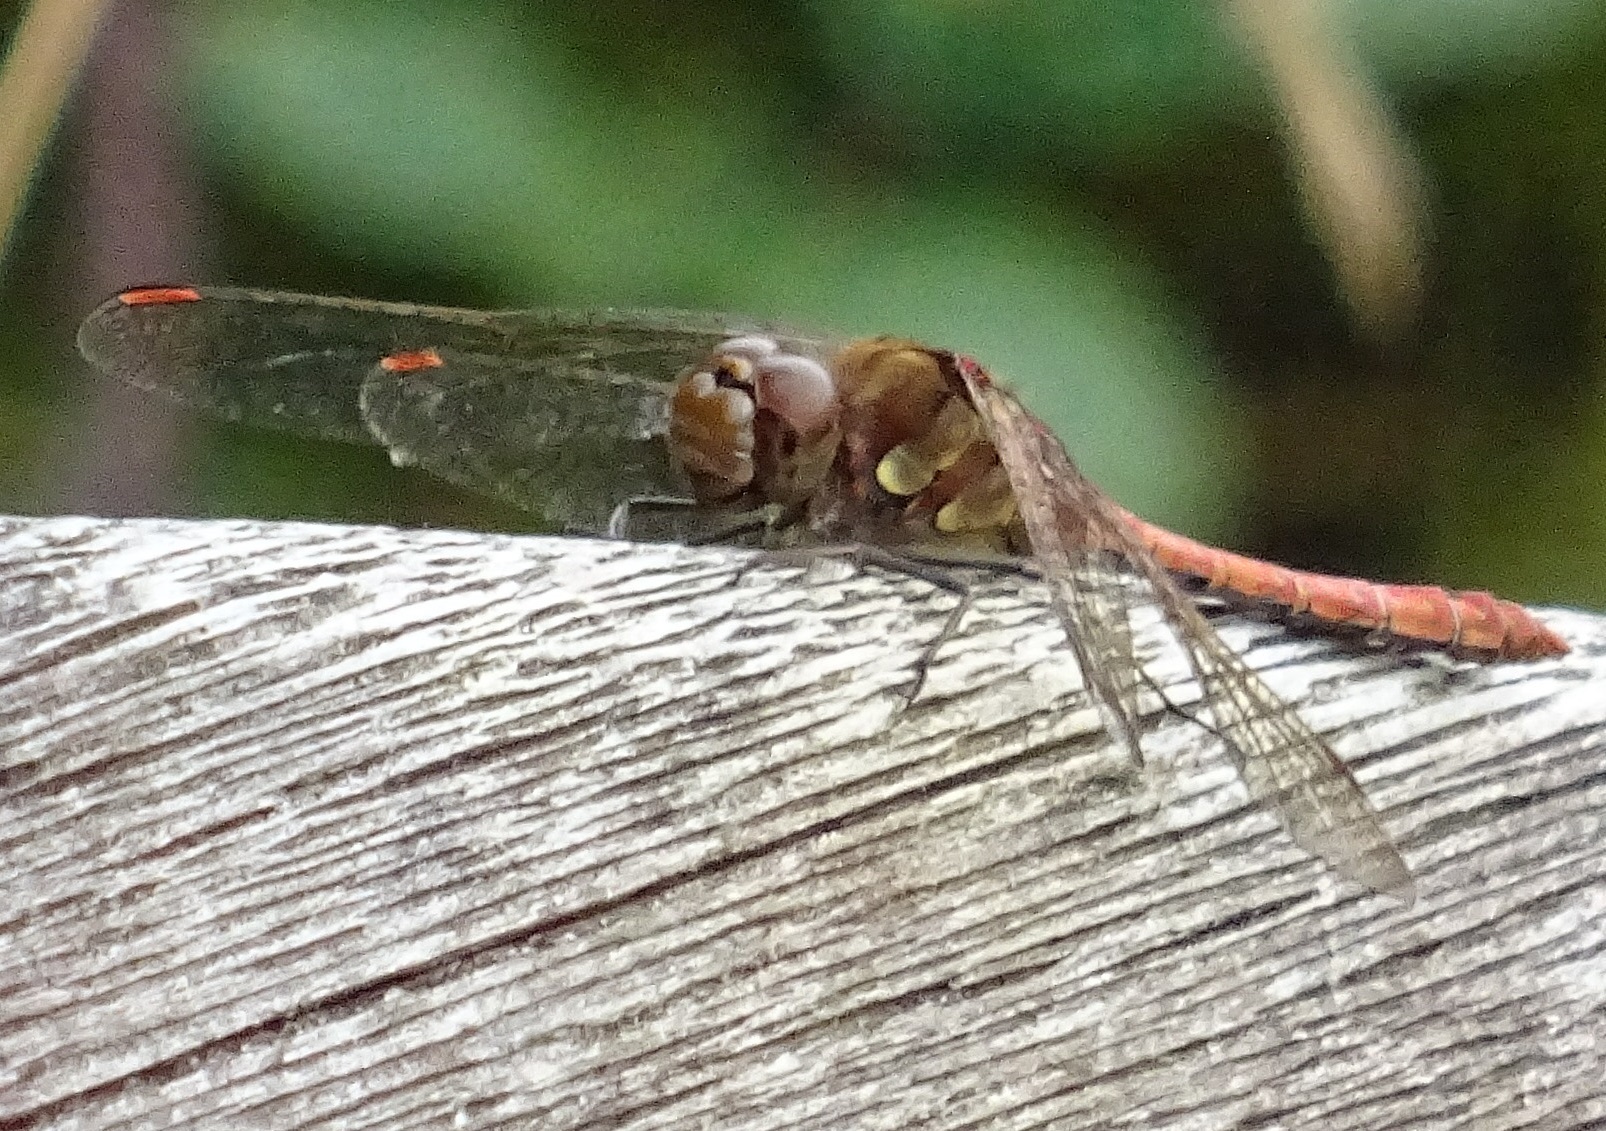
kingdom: Animalia
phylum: Arthropoda
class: Insecta
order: Odonata
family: Libellulidae
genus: Sympetrum
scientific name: Sympetrum striolatum
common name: Common darter
